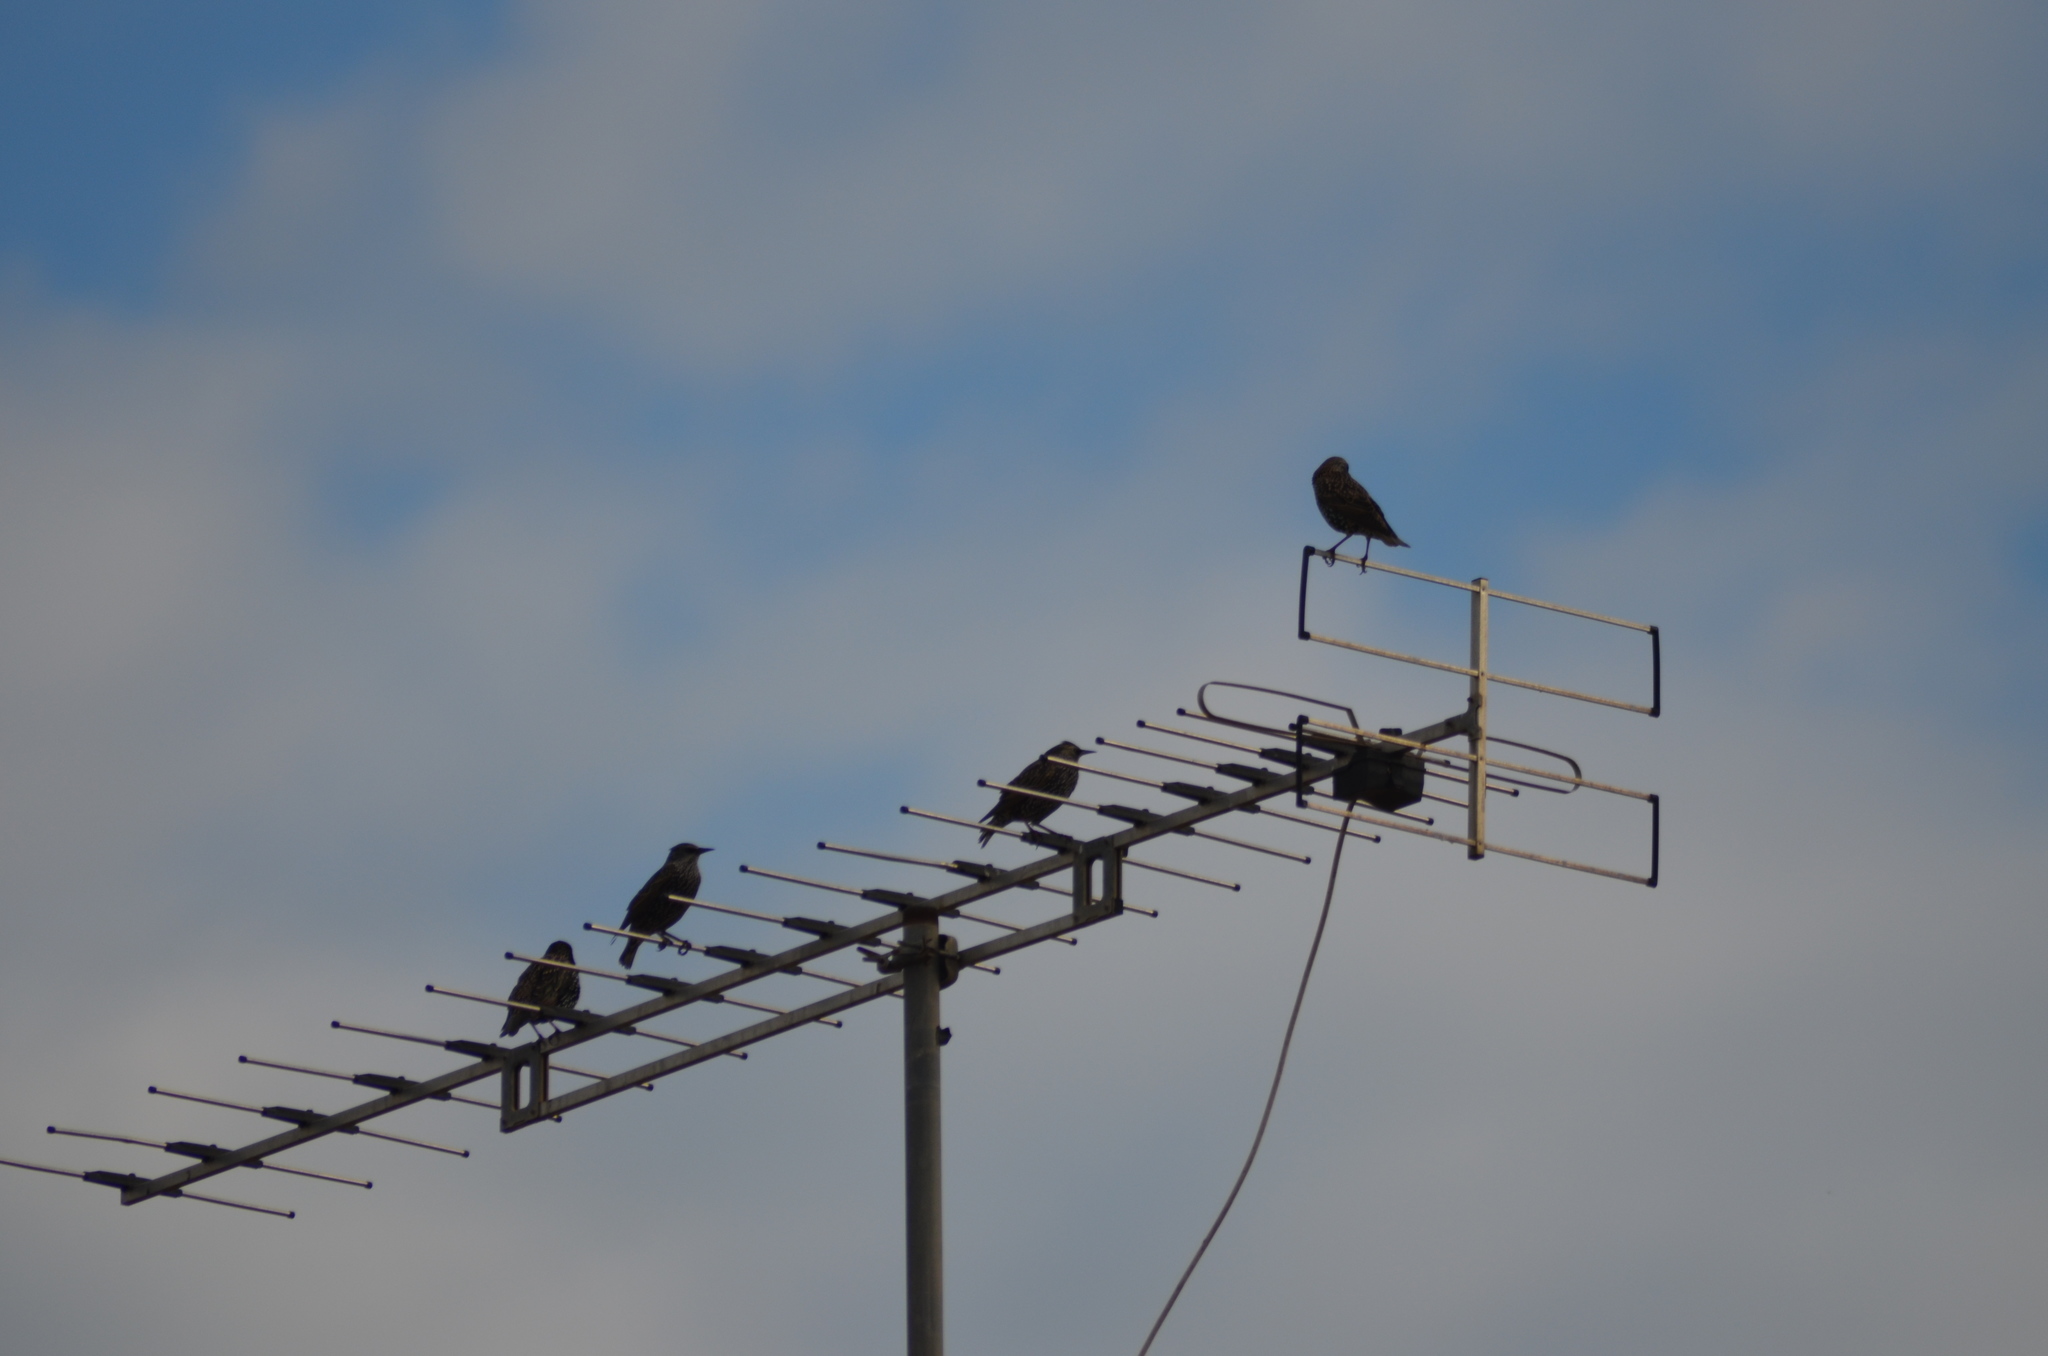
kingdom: Animalia
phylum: Chordata
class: Aves
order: Passeriformes
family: Sturnidae
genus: Sturnus
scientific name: Sturnus vulgaris
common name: Common starling
